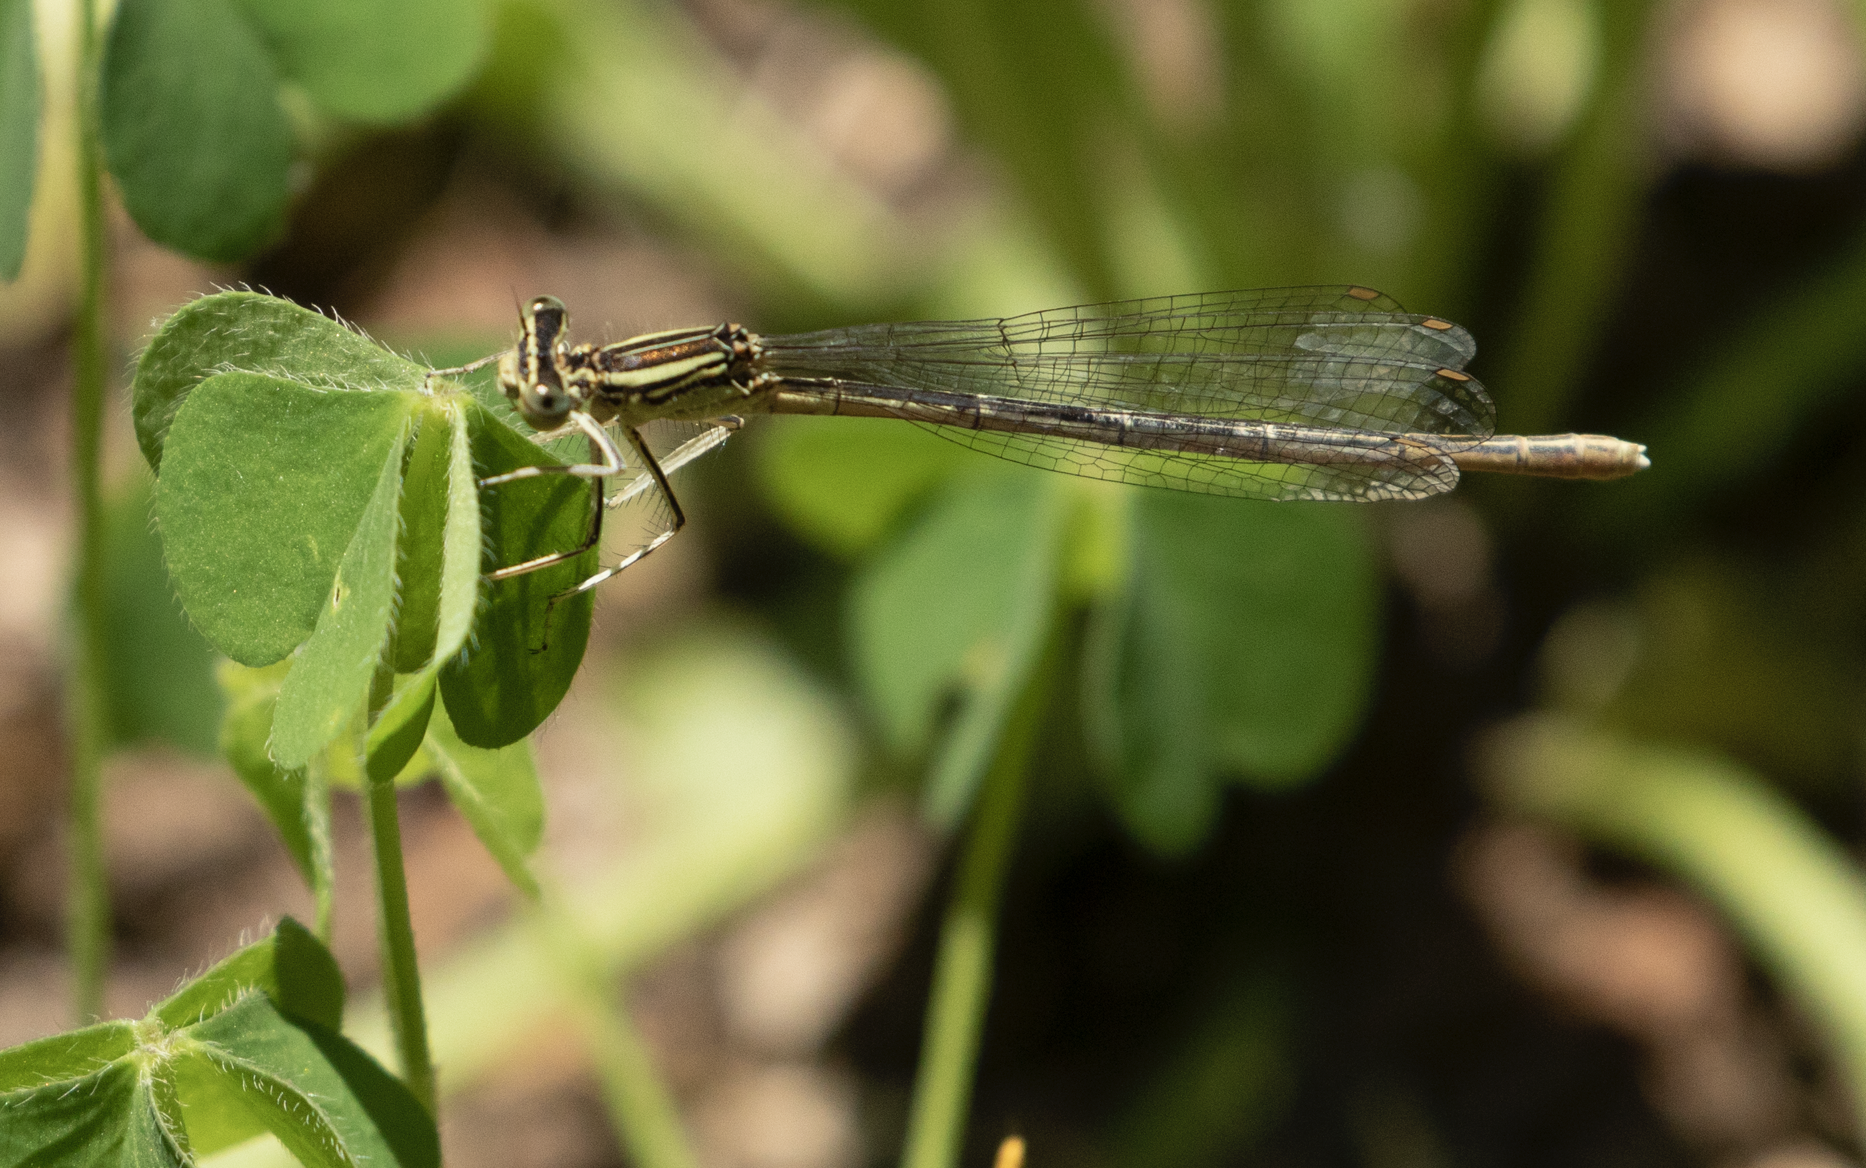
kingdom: Animalia
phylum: Arthropoda
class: Insecta
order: Odonata
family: Platycnemididae
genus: Platycnemis
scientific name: Platycnemis pennipes
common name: White-legged damselfly
